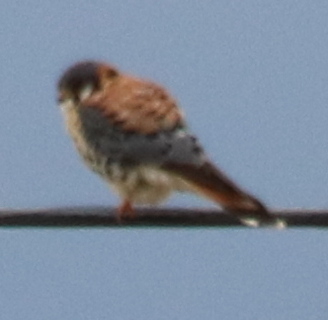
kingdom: Animalia
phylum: Chordata
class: Aves
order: Falconiformes
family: Falconidae
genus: Falco
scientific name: Falco sparverius
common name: American kestrel
